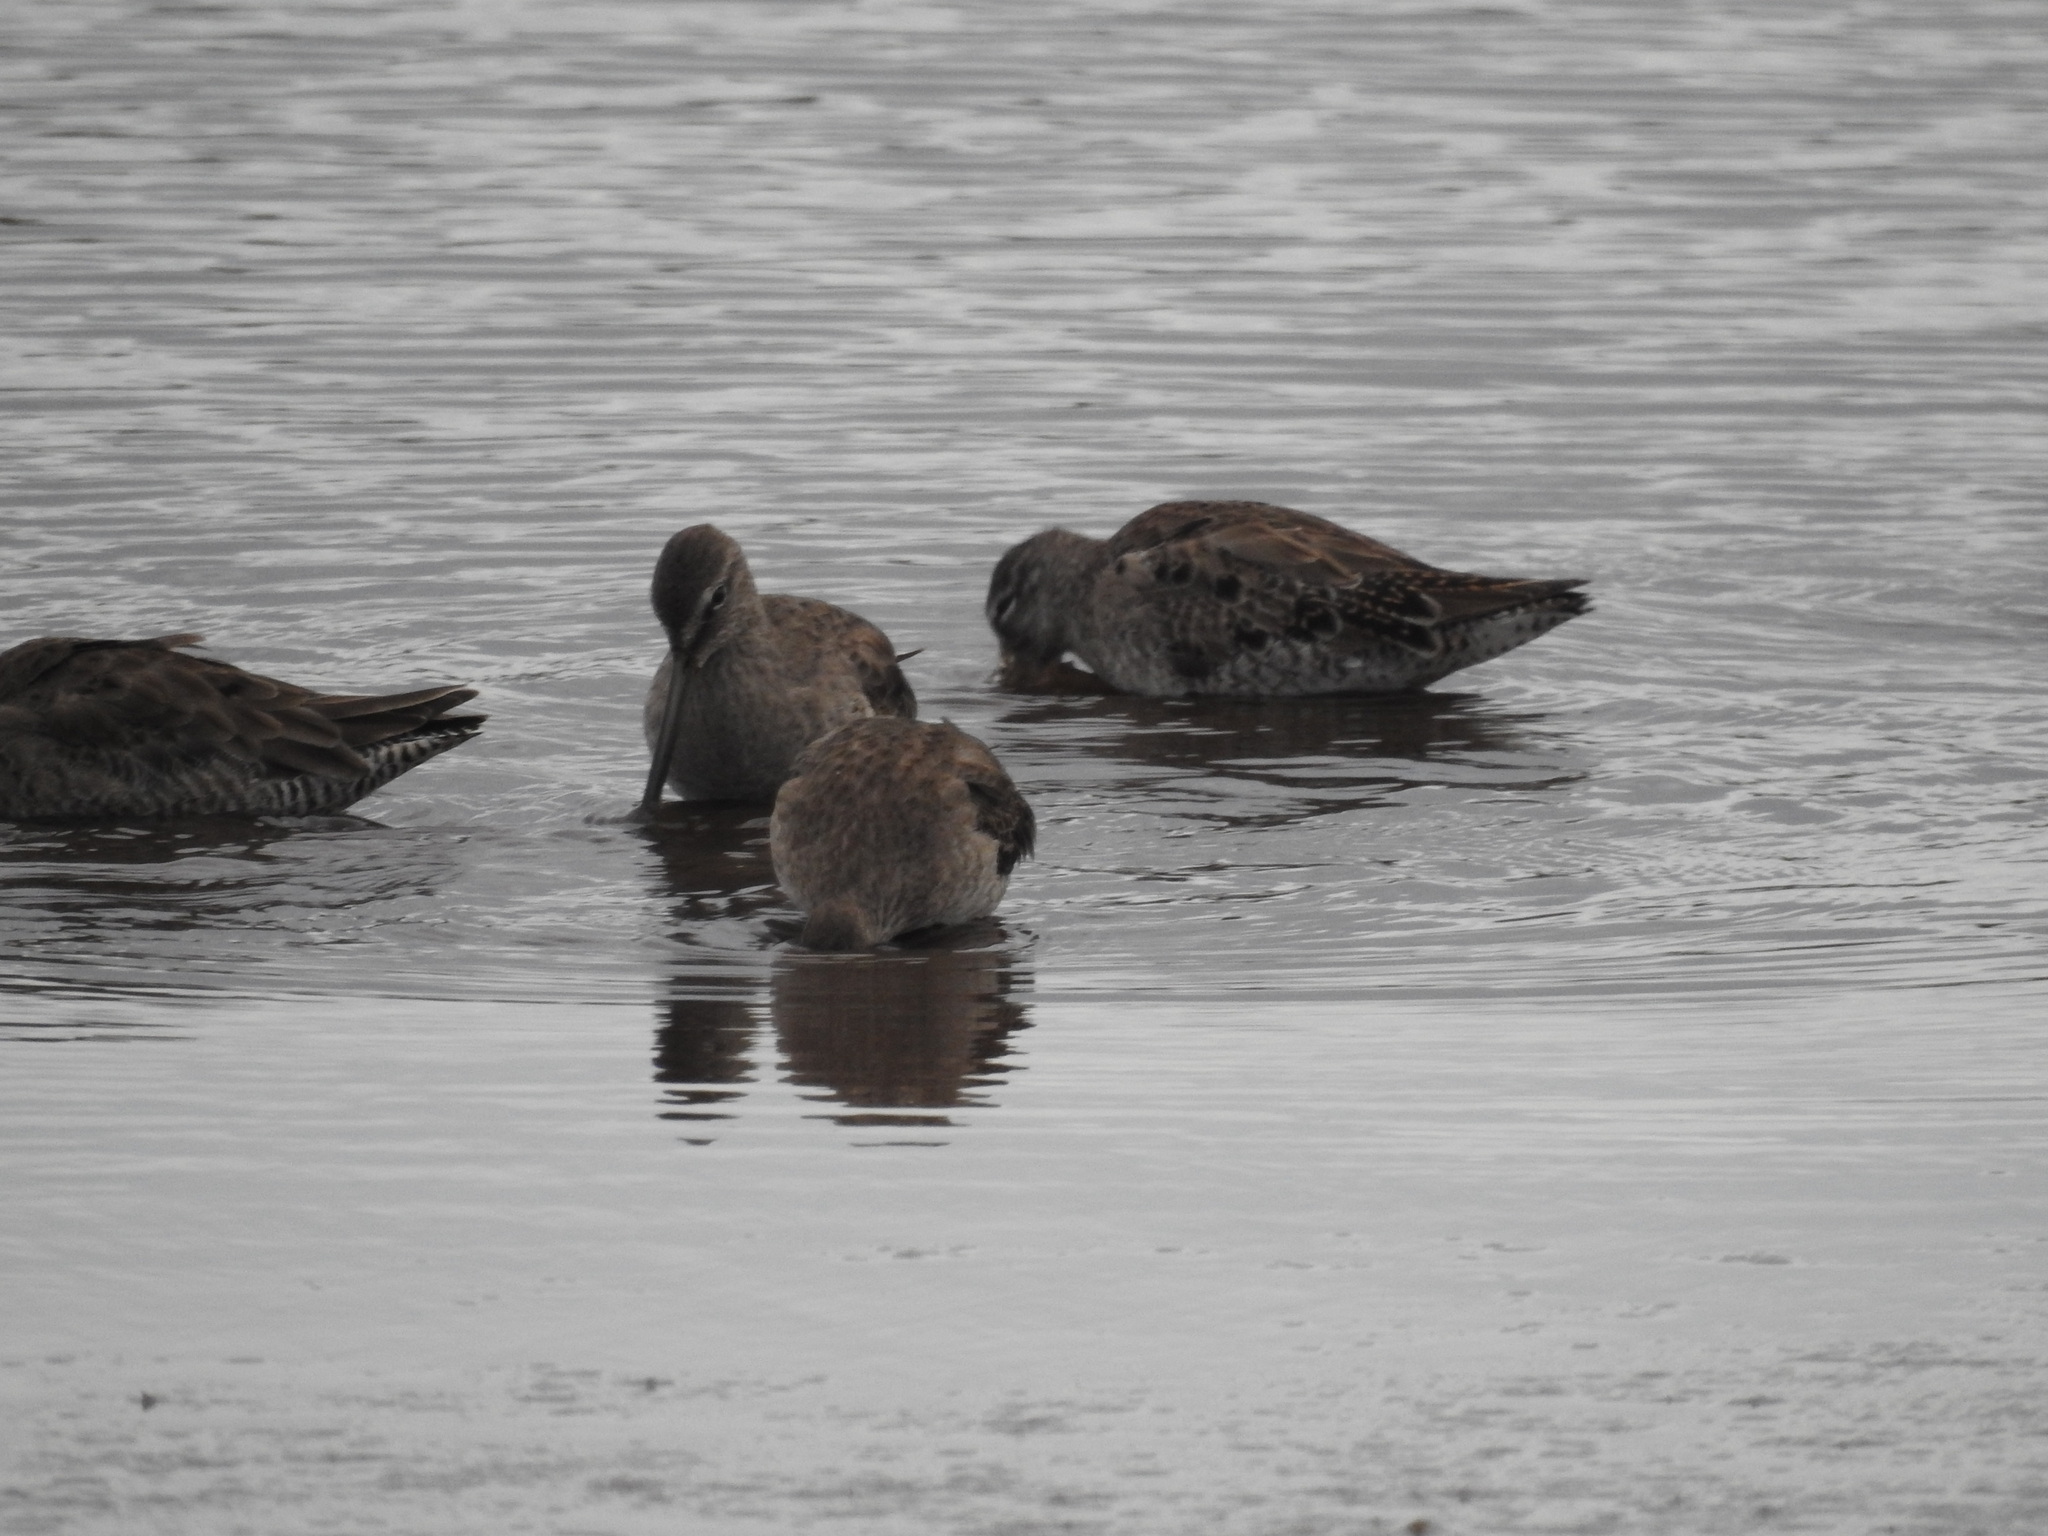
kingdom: Animalia
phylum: Chordata
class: Aves
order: Charadriiformes
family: Scolopacidae
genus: Limnodromus
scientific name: Limnodromus scolopaceus
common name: Long-billed dowitcher
